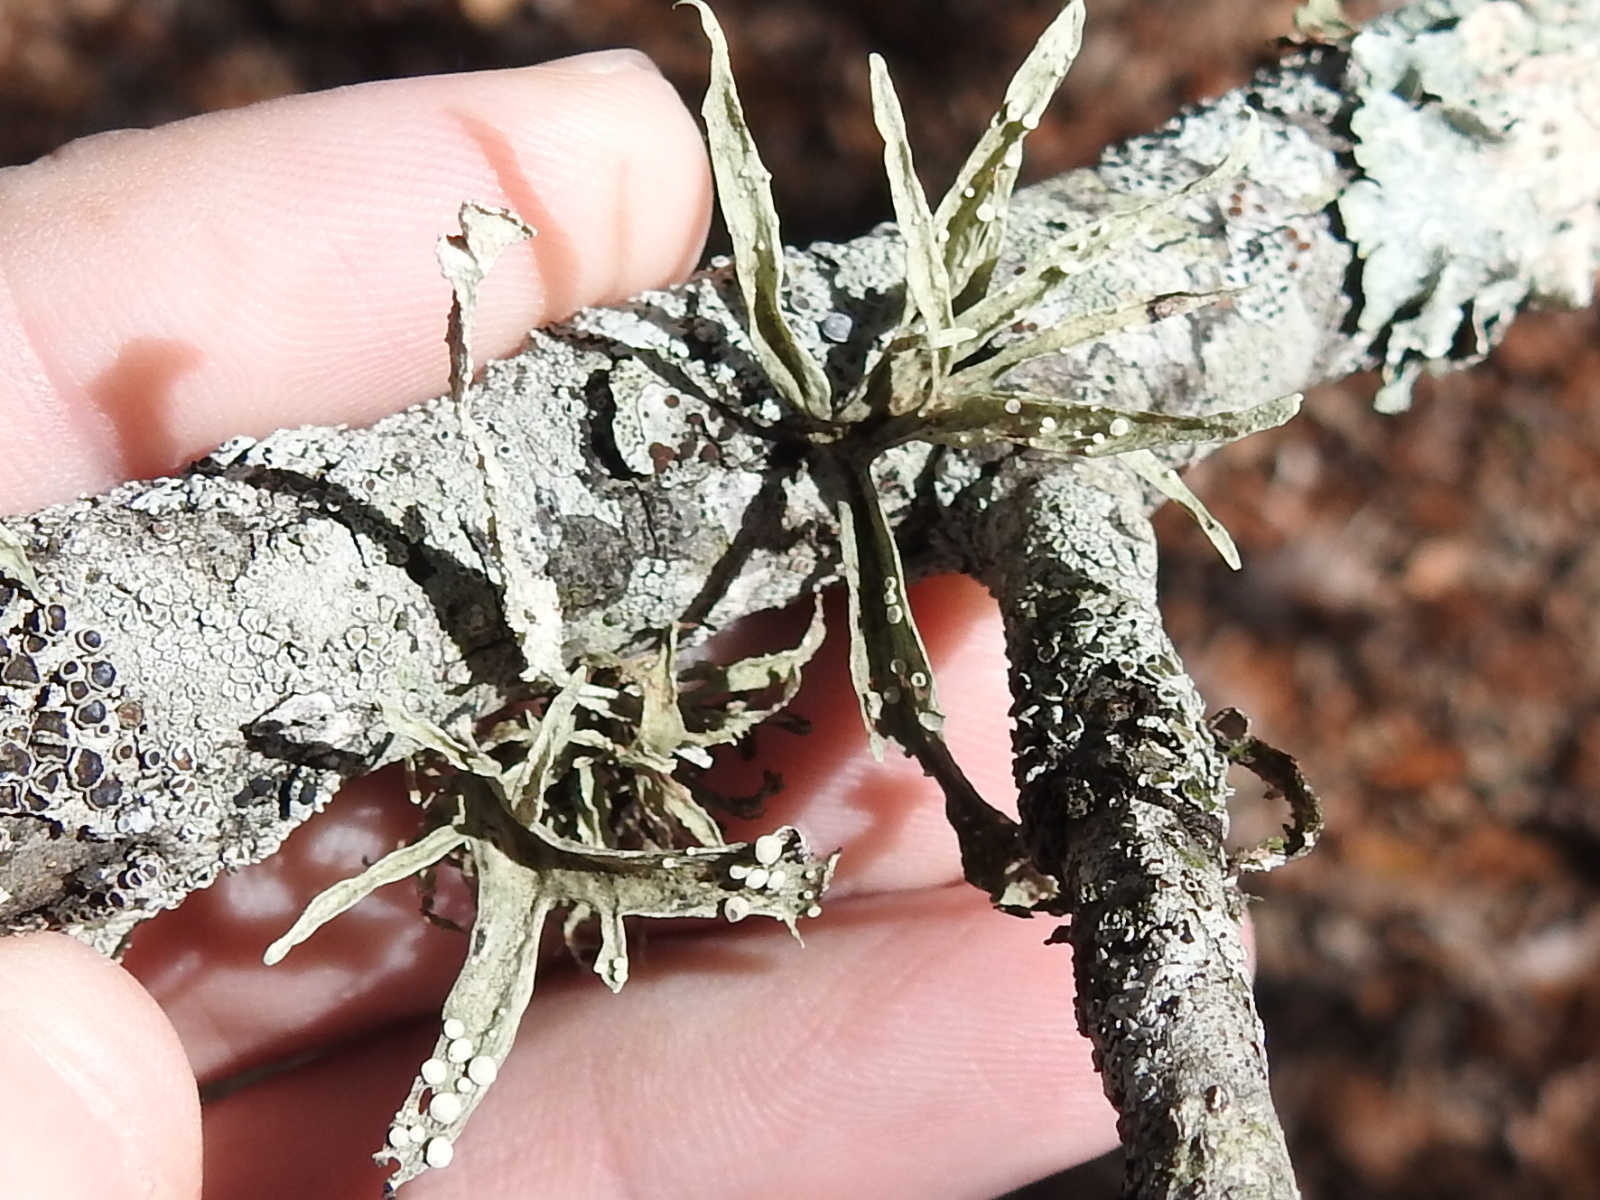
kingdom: Fungi
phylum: Ascomycota
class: Lecanoromycetes
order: Lecanorales
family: Ramalinaceae
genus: Ramalina
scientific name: Ramalina celastri
